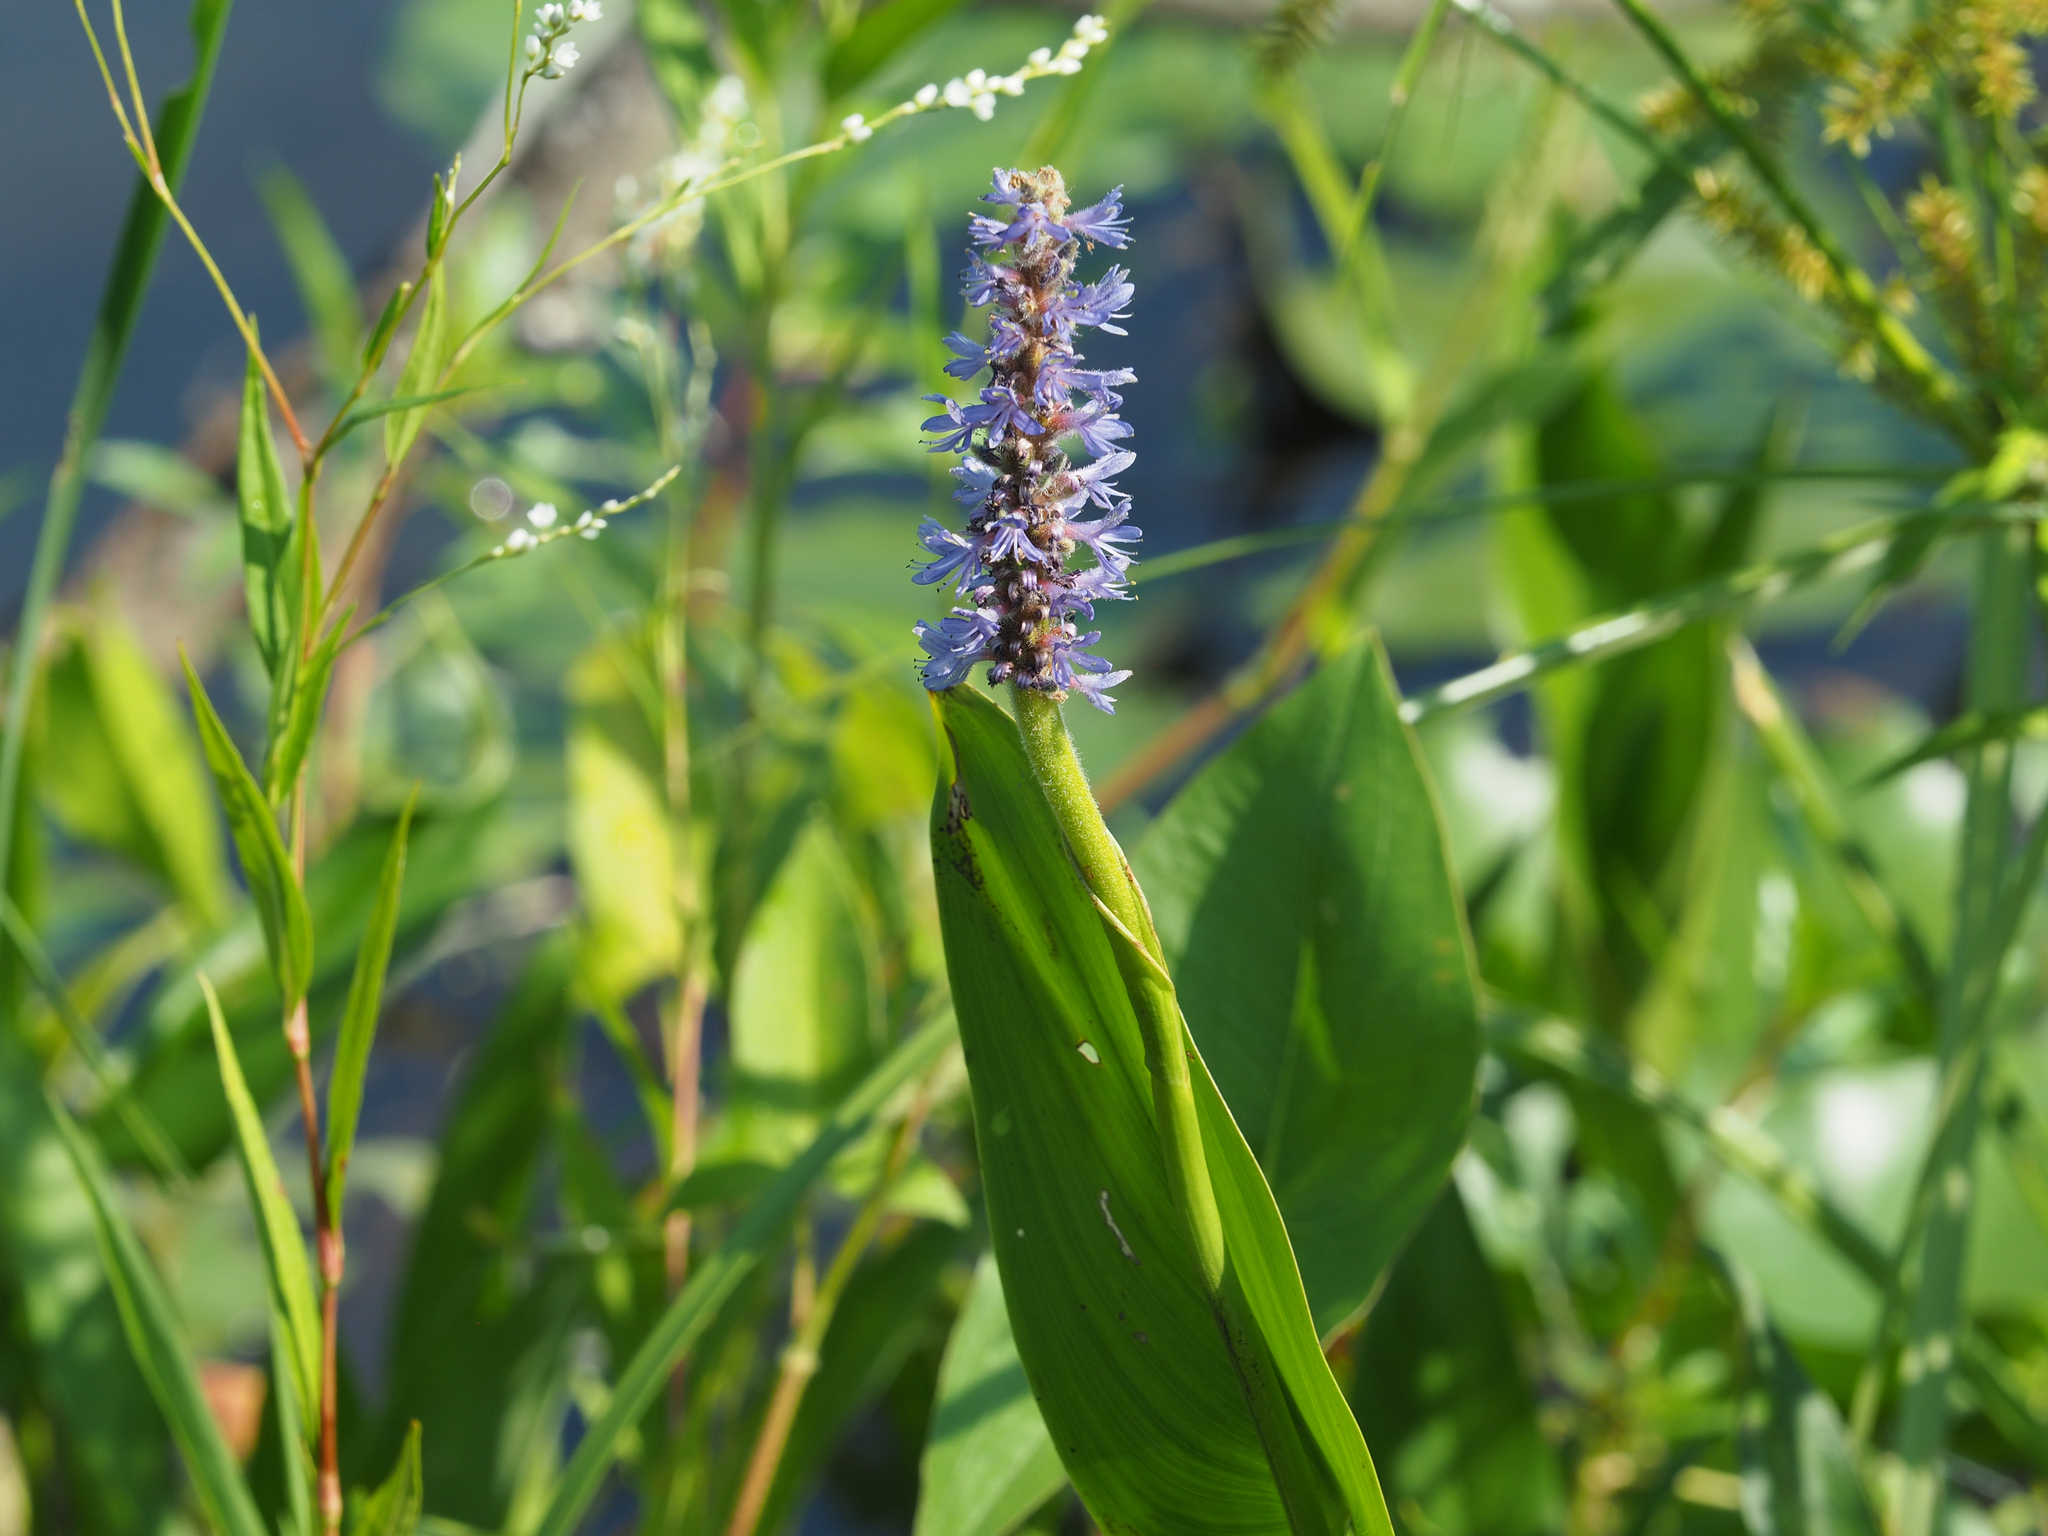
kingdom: Plantae
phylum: Tracheophyta
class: Liliopsida
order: Commelinales
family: Pontederiaceae
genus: Pontederia
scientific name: Pontederia cordata
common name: Pickerelweed
